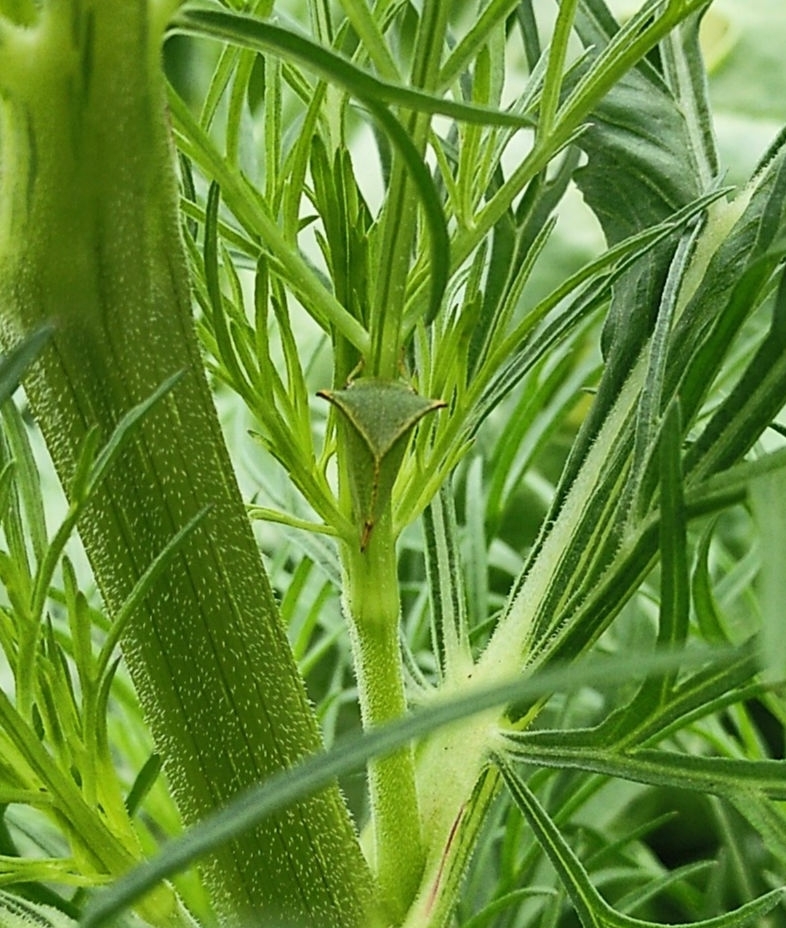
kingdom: Animalia
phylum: Arthropoda
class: Insecta
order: Hemiptera
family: Membracidae
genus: Stictocephala
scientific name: Stictocephala bisonia
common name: American buffalo treehopper
